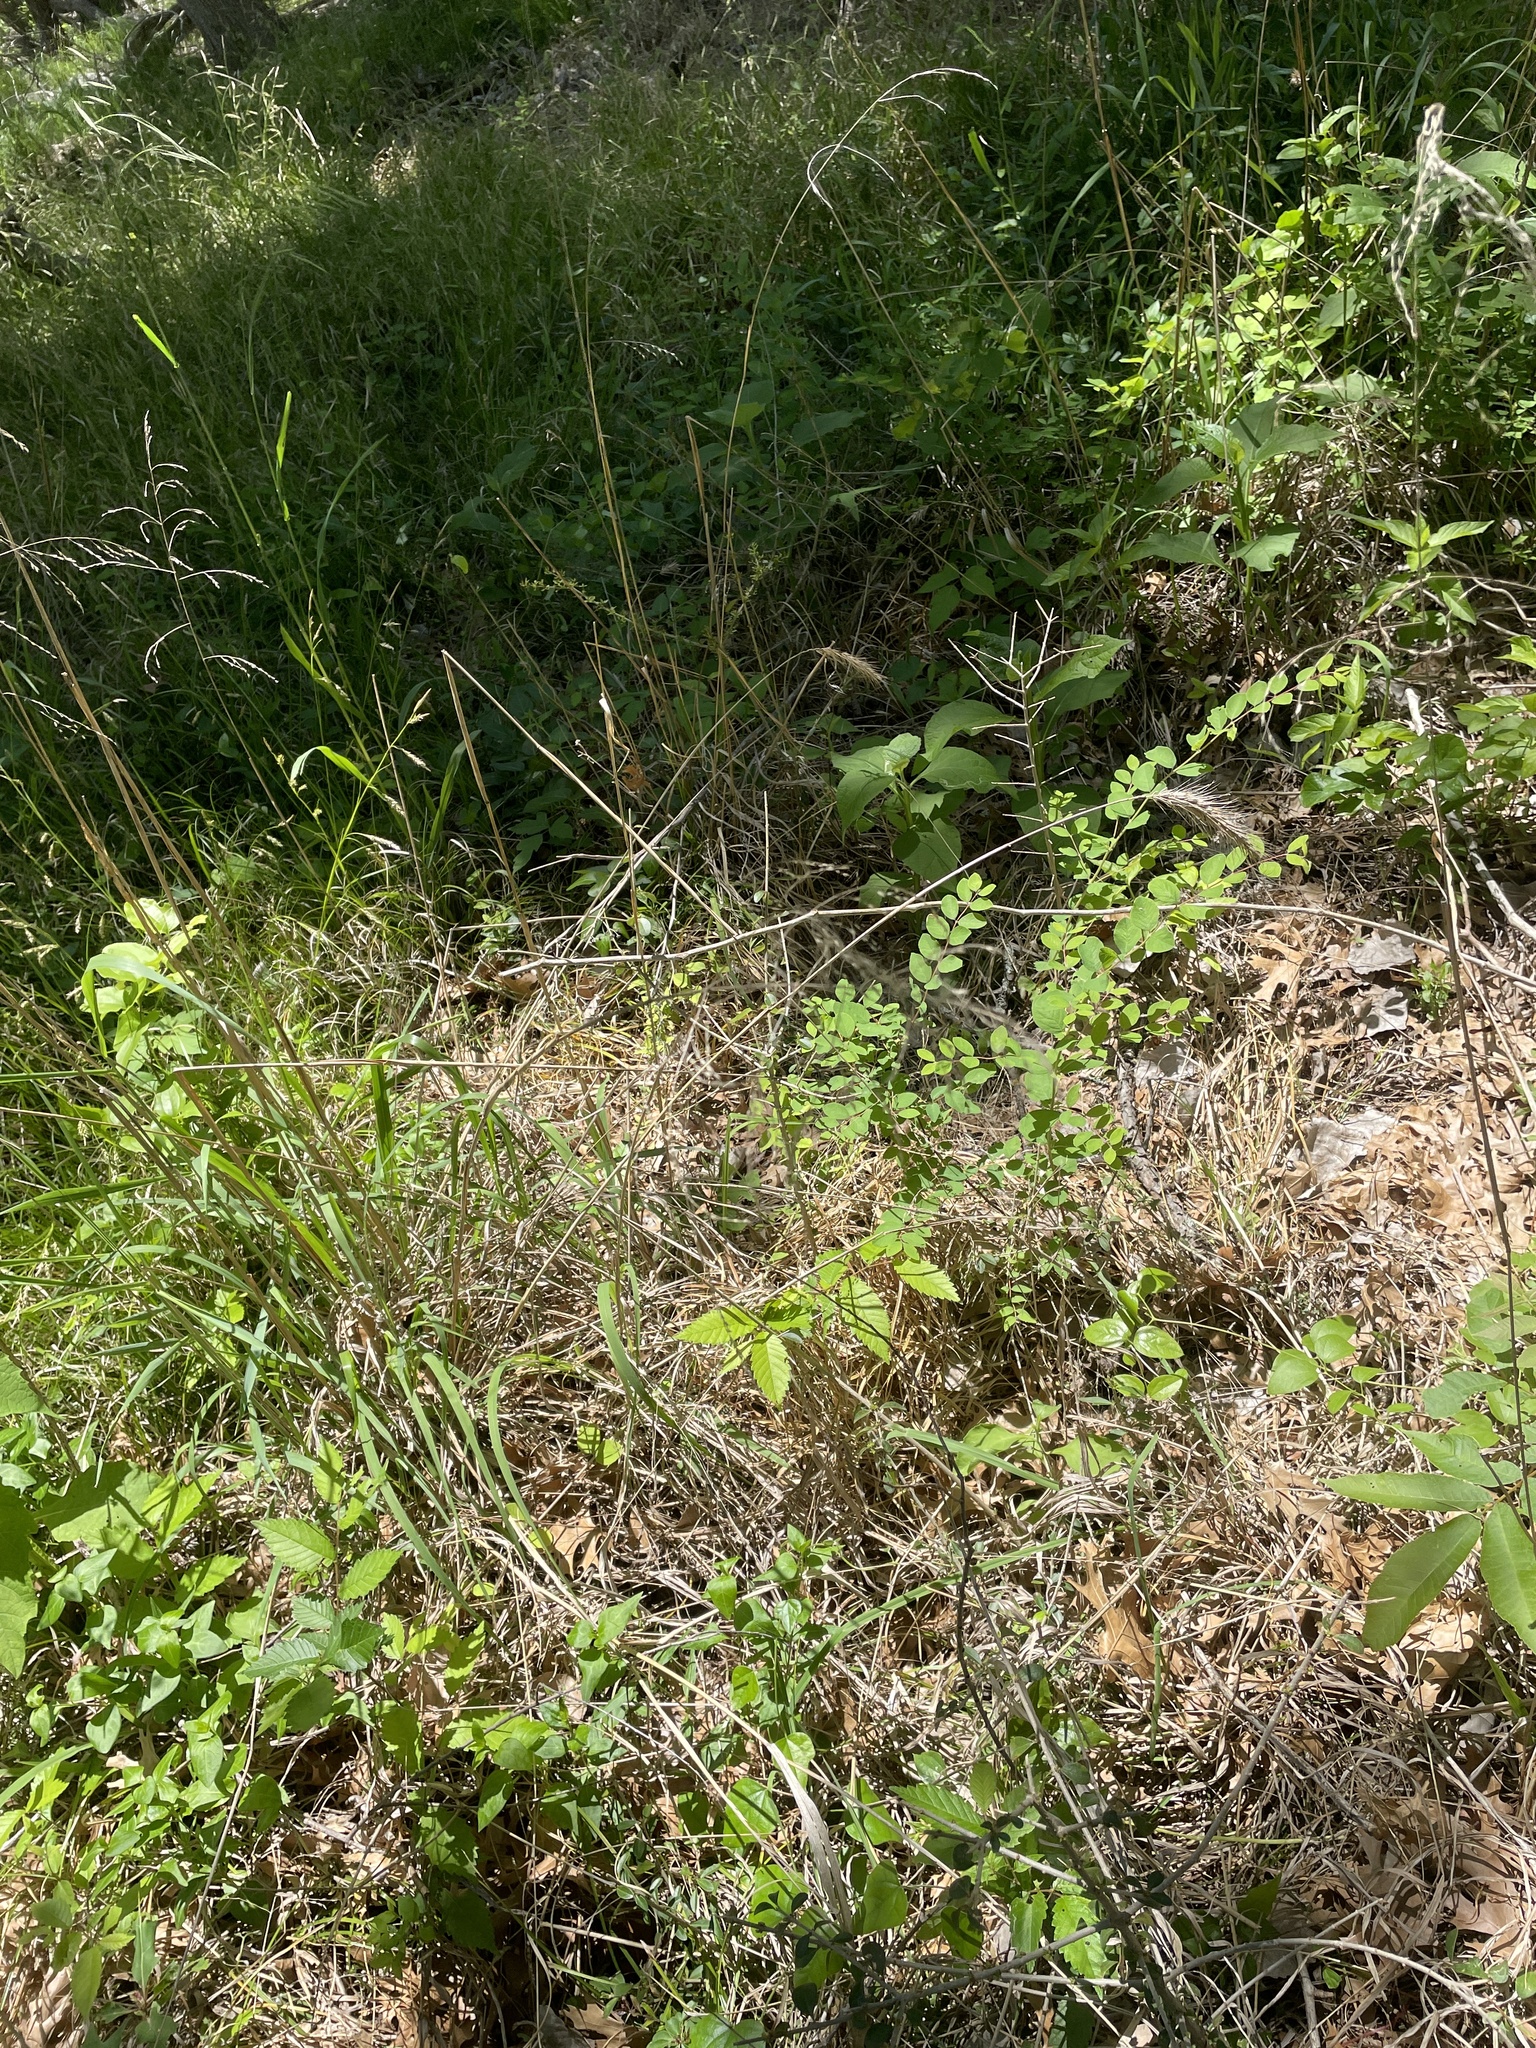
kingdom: Plantae
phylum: Tracheophyta
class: Liliopsida
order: Poales
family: Poaceae
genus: Elymus
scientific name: Elymus virginicus
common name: Common eastern wildrye
